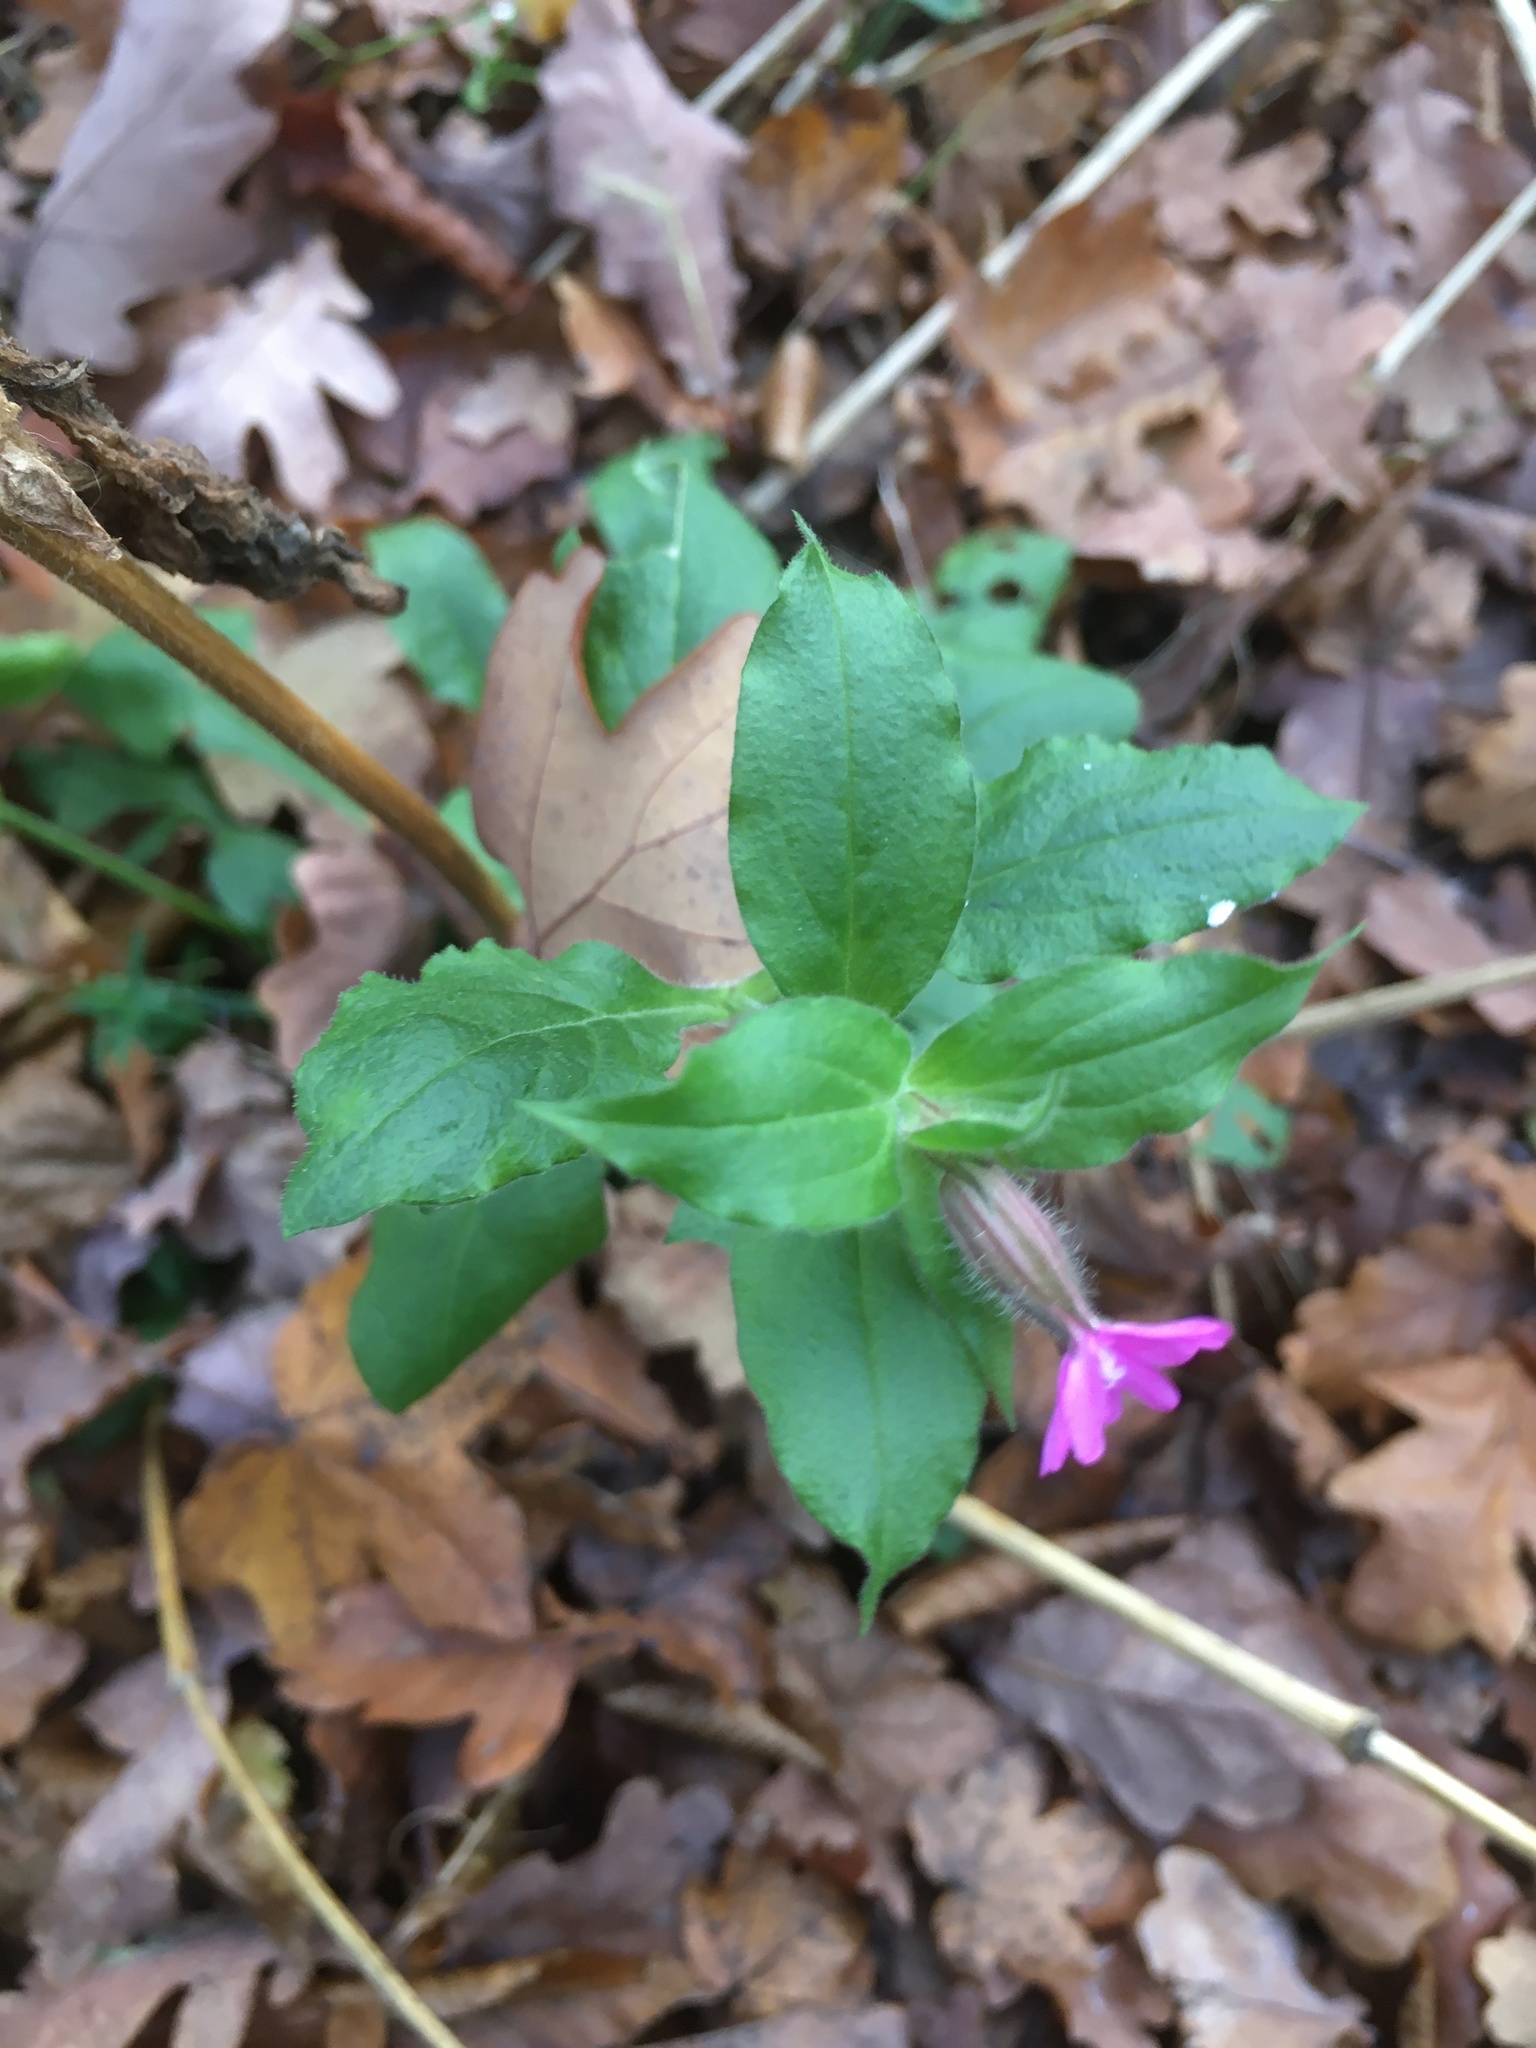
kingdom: Plantae
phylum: Tracheophyta
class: Magnoliopsida
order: Caryophyllales
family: Caryophyllaceae
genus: Silene
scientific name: Silene dioica
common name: Red campion
